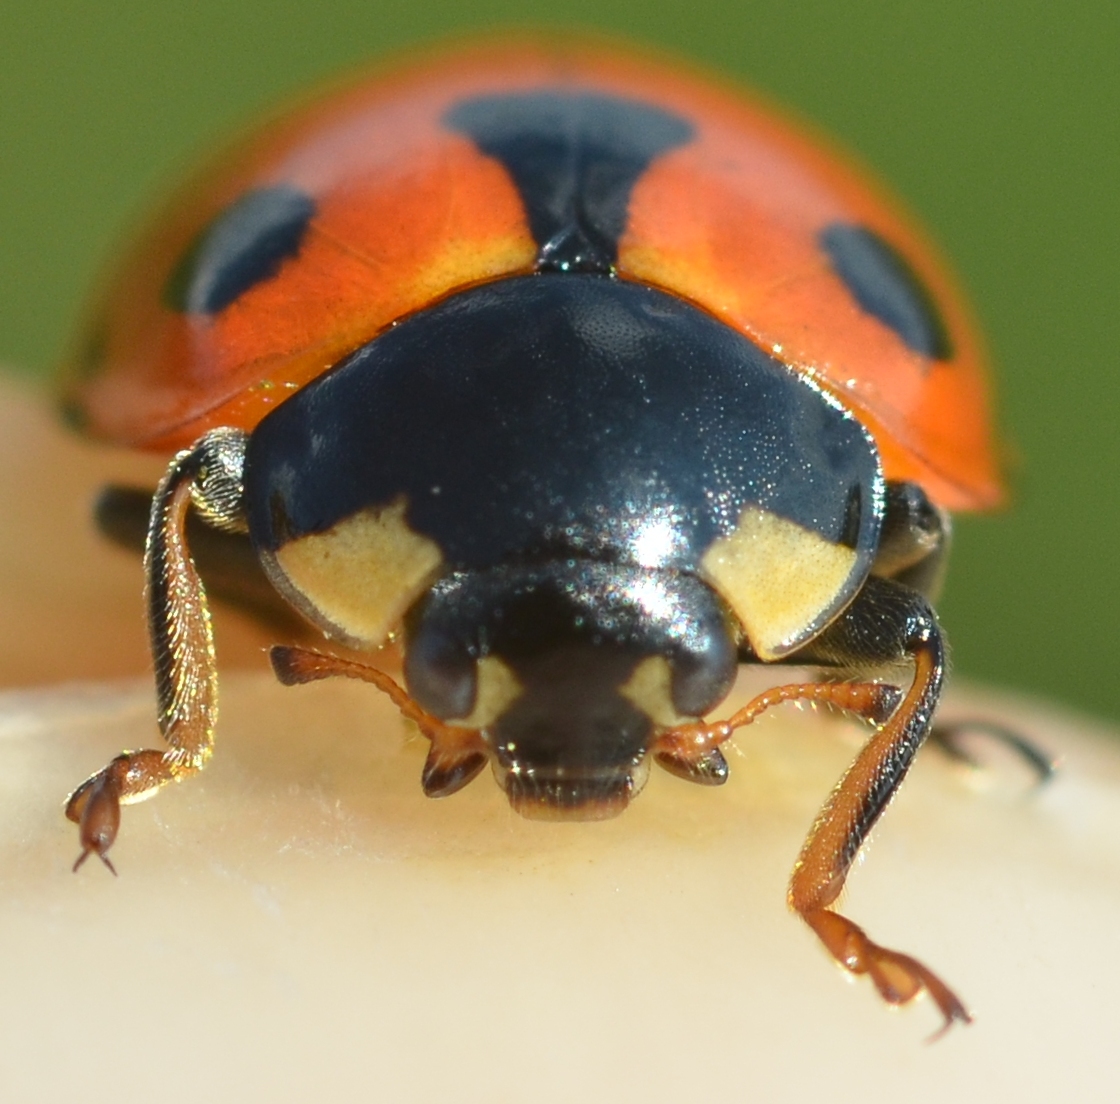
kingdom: Animalia
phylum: Arthropoda
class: Insecta
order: Coleoptera
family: Coccinellidae
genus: Ceratomegilla
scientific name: Ceratomegilla undecimnotata
